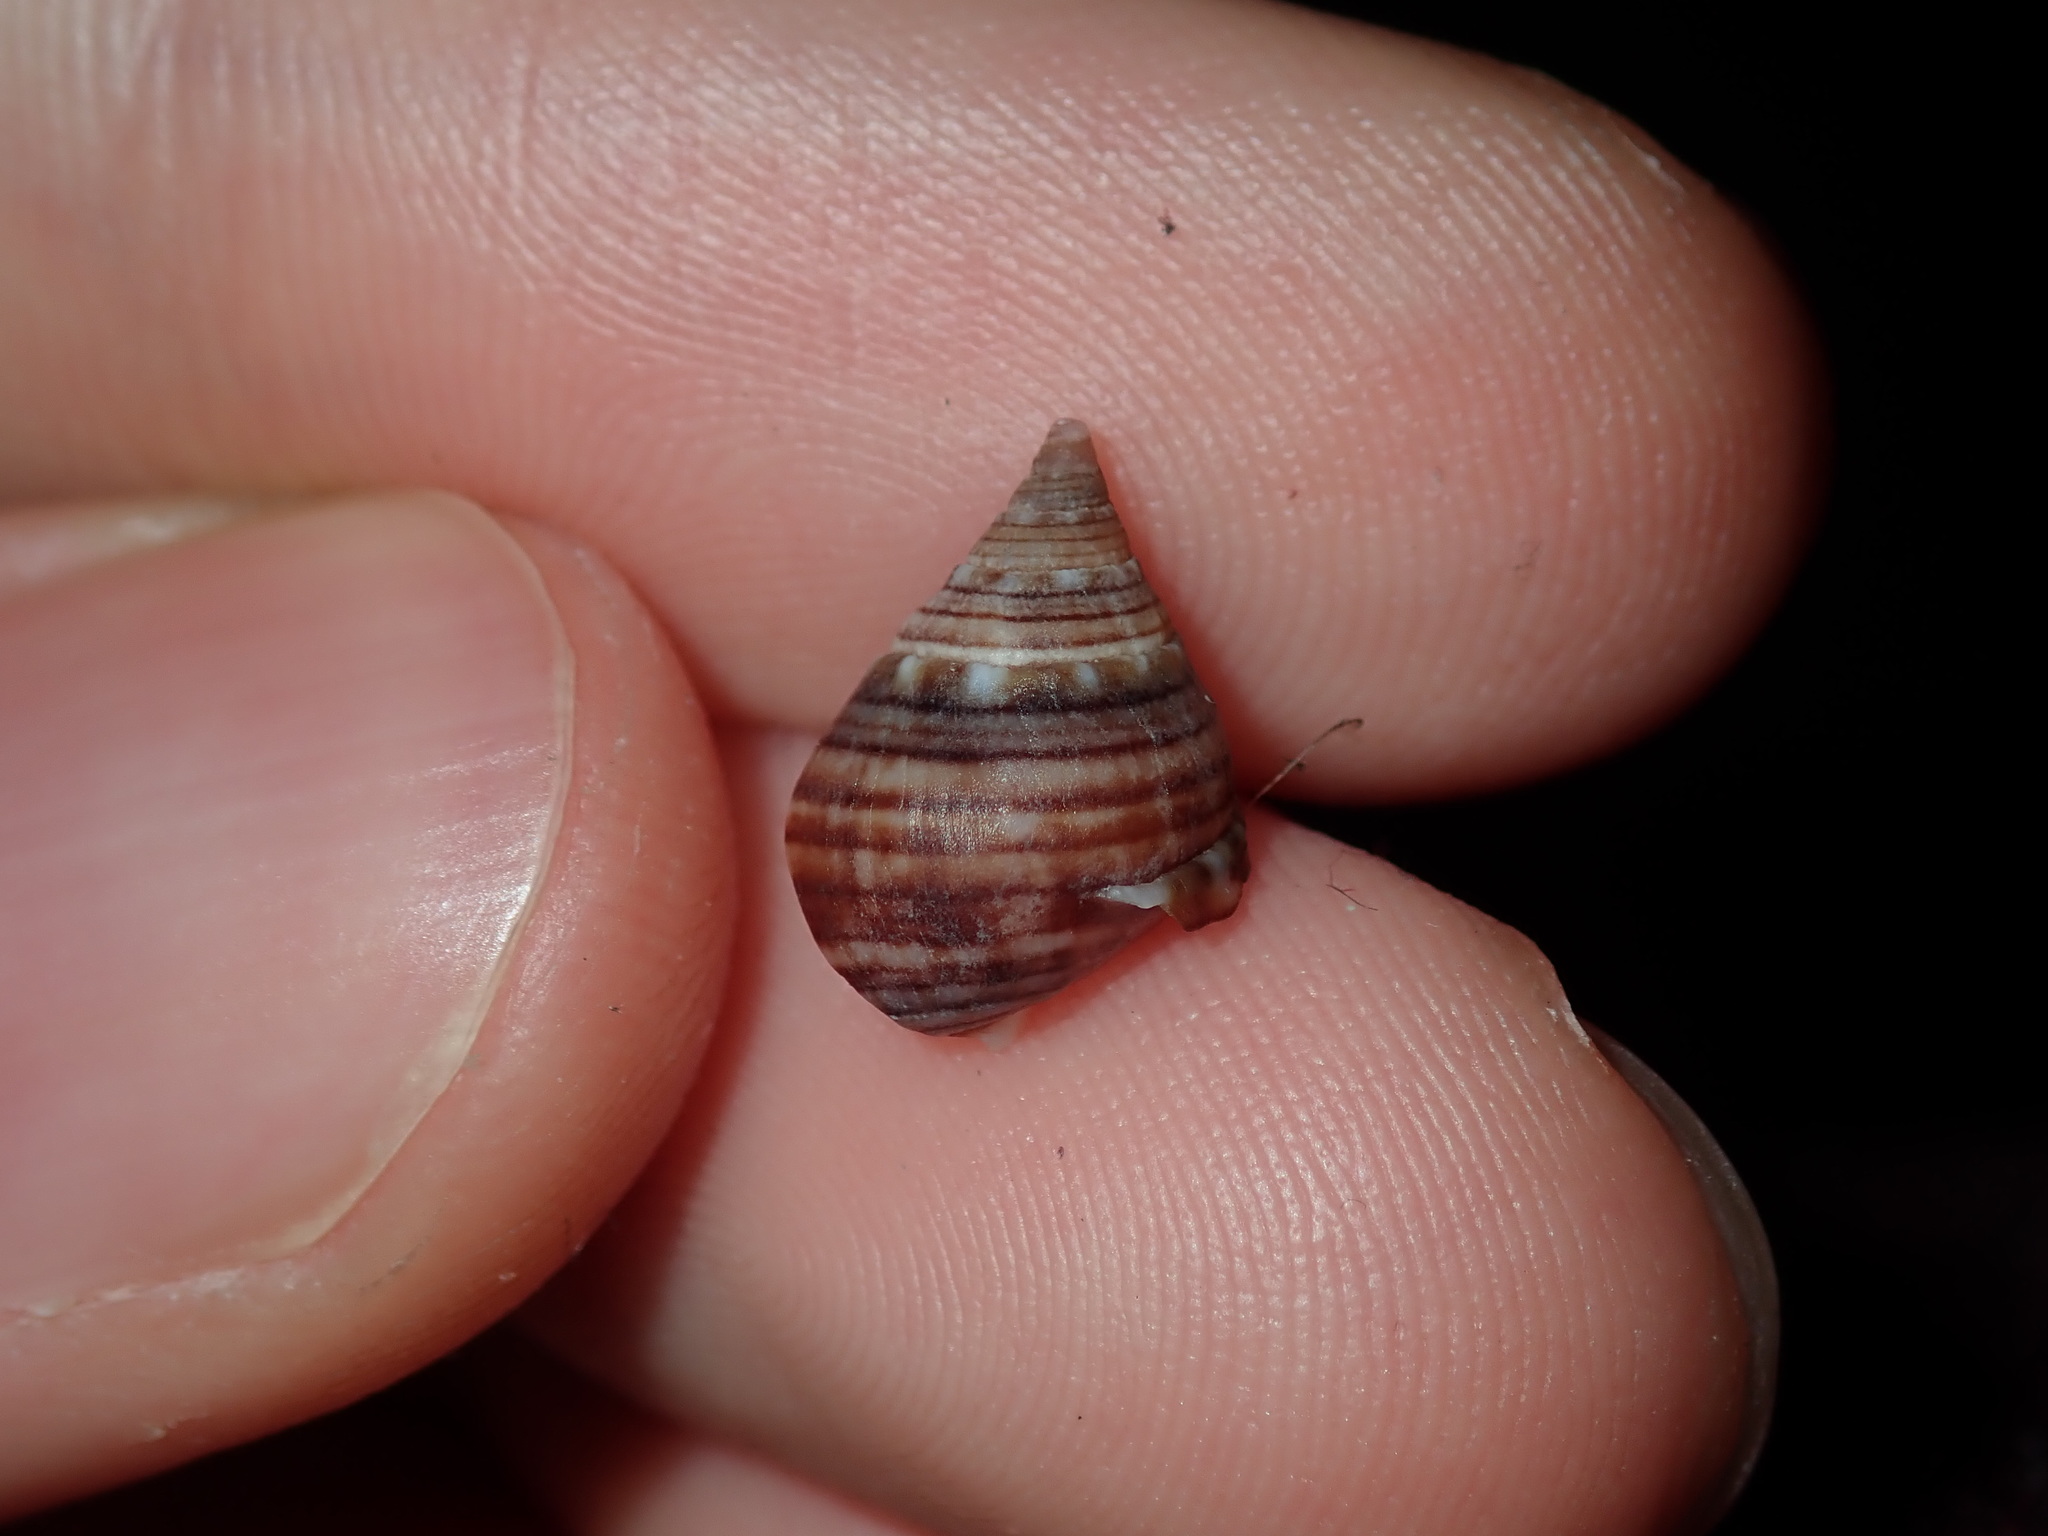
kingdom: Animalia
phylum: Mollusca
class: Gastropoda
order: Neogastropoda
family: Nassariidae
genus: Nassarius
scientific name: Nassarius gaudiosus
